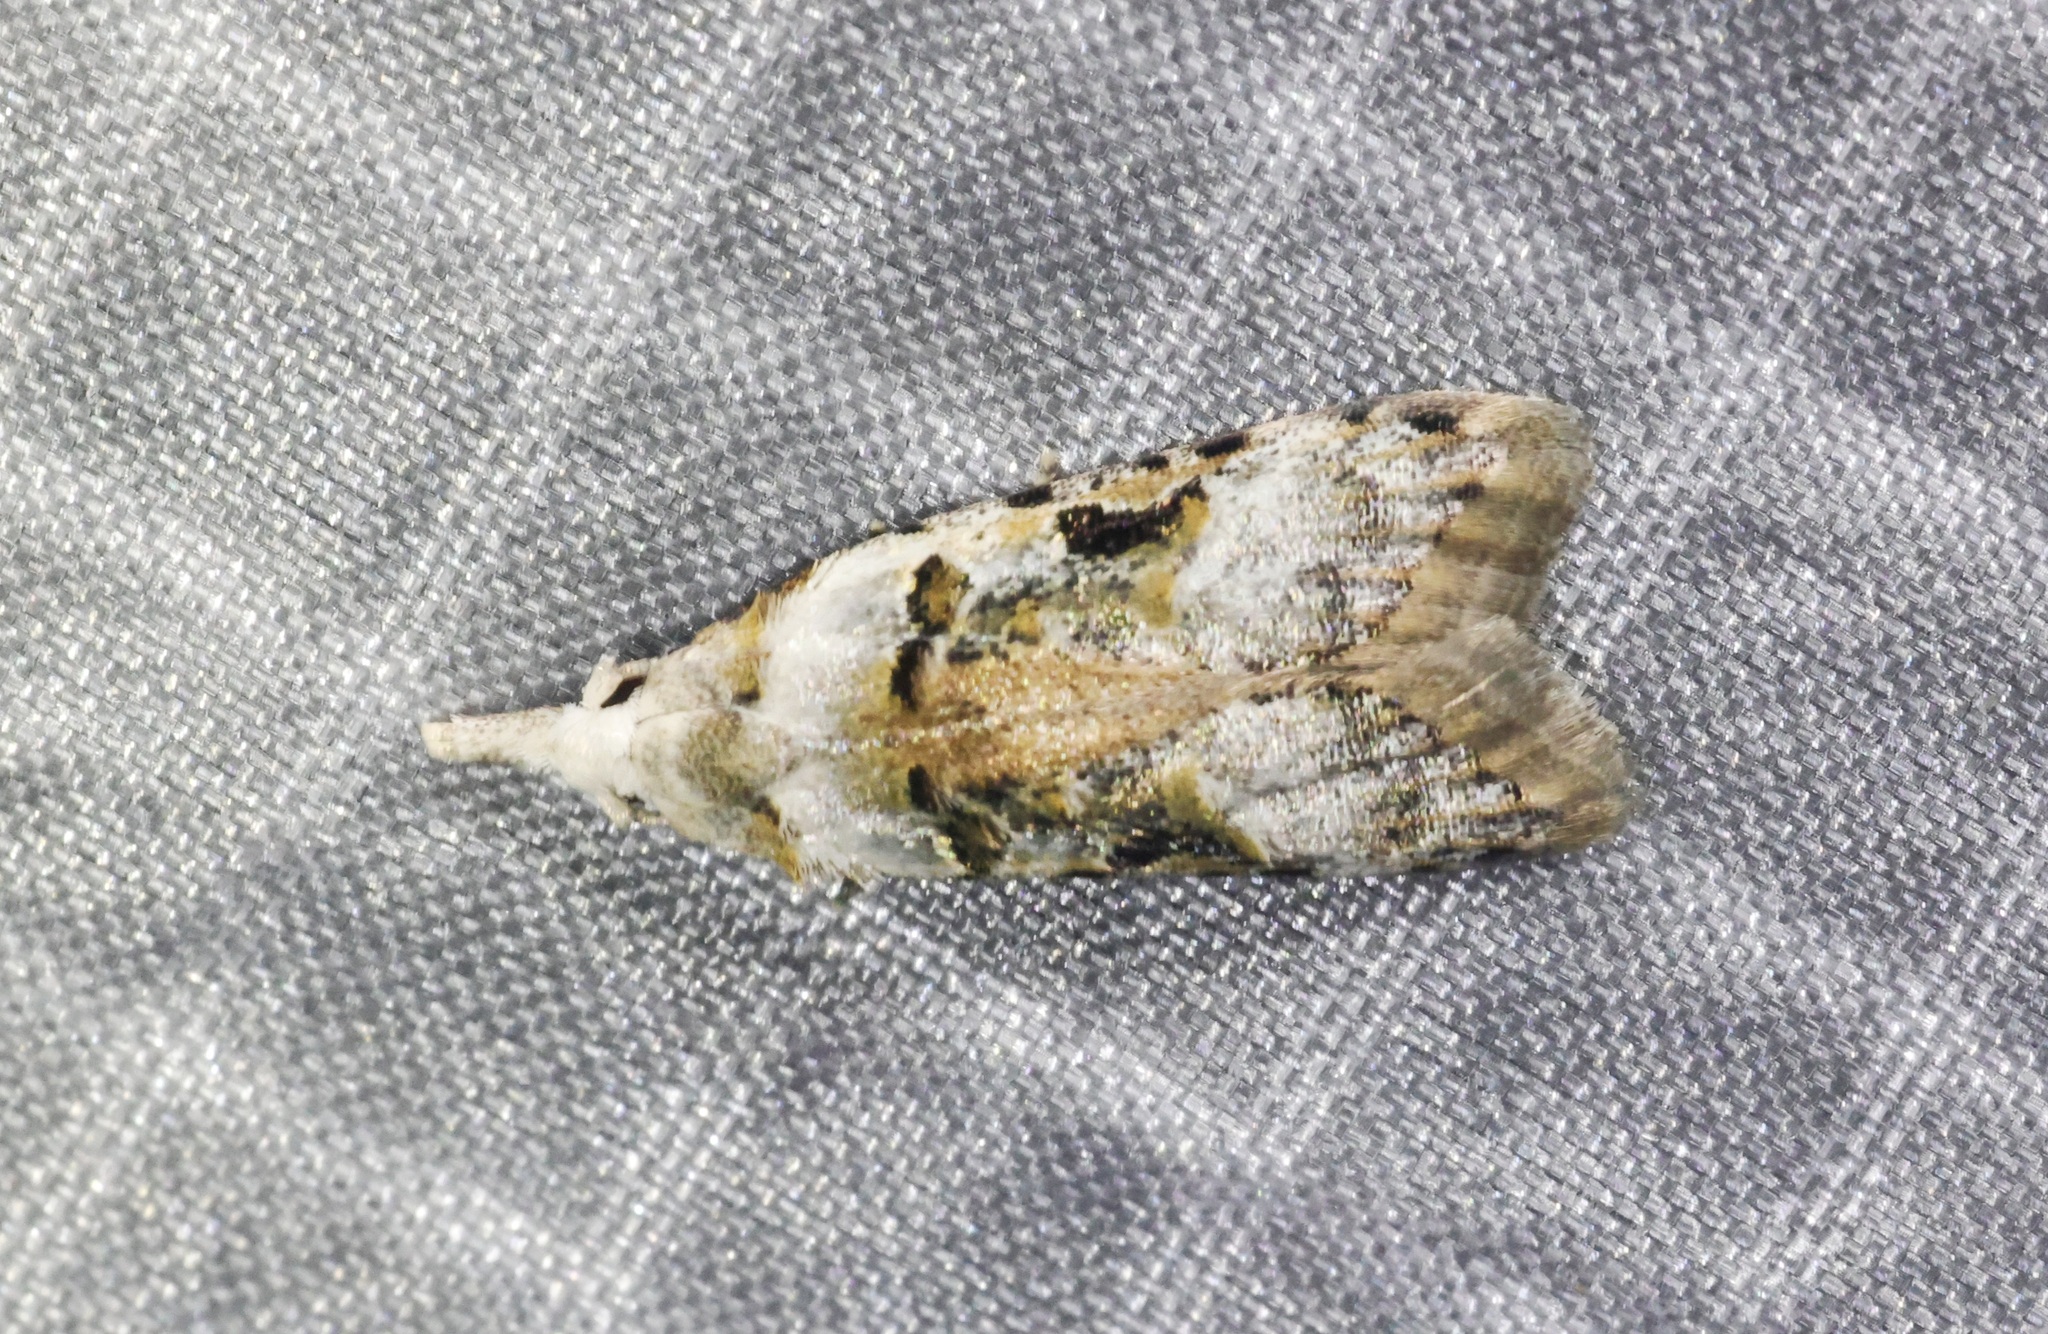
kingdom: Animalia
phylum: Arthropoda
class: Insecta
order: Lepidoptera
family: Carposinidae
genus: Metacosmesis
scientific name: Metacosmesis laxeuta
